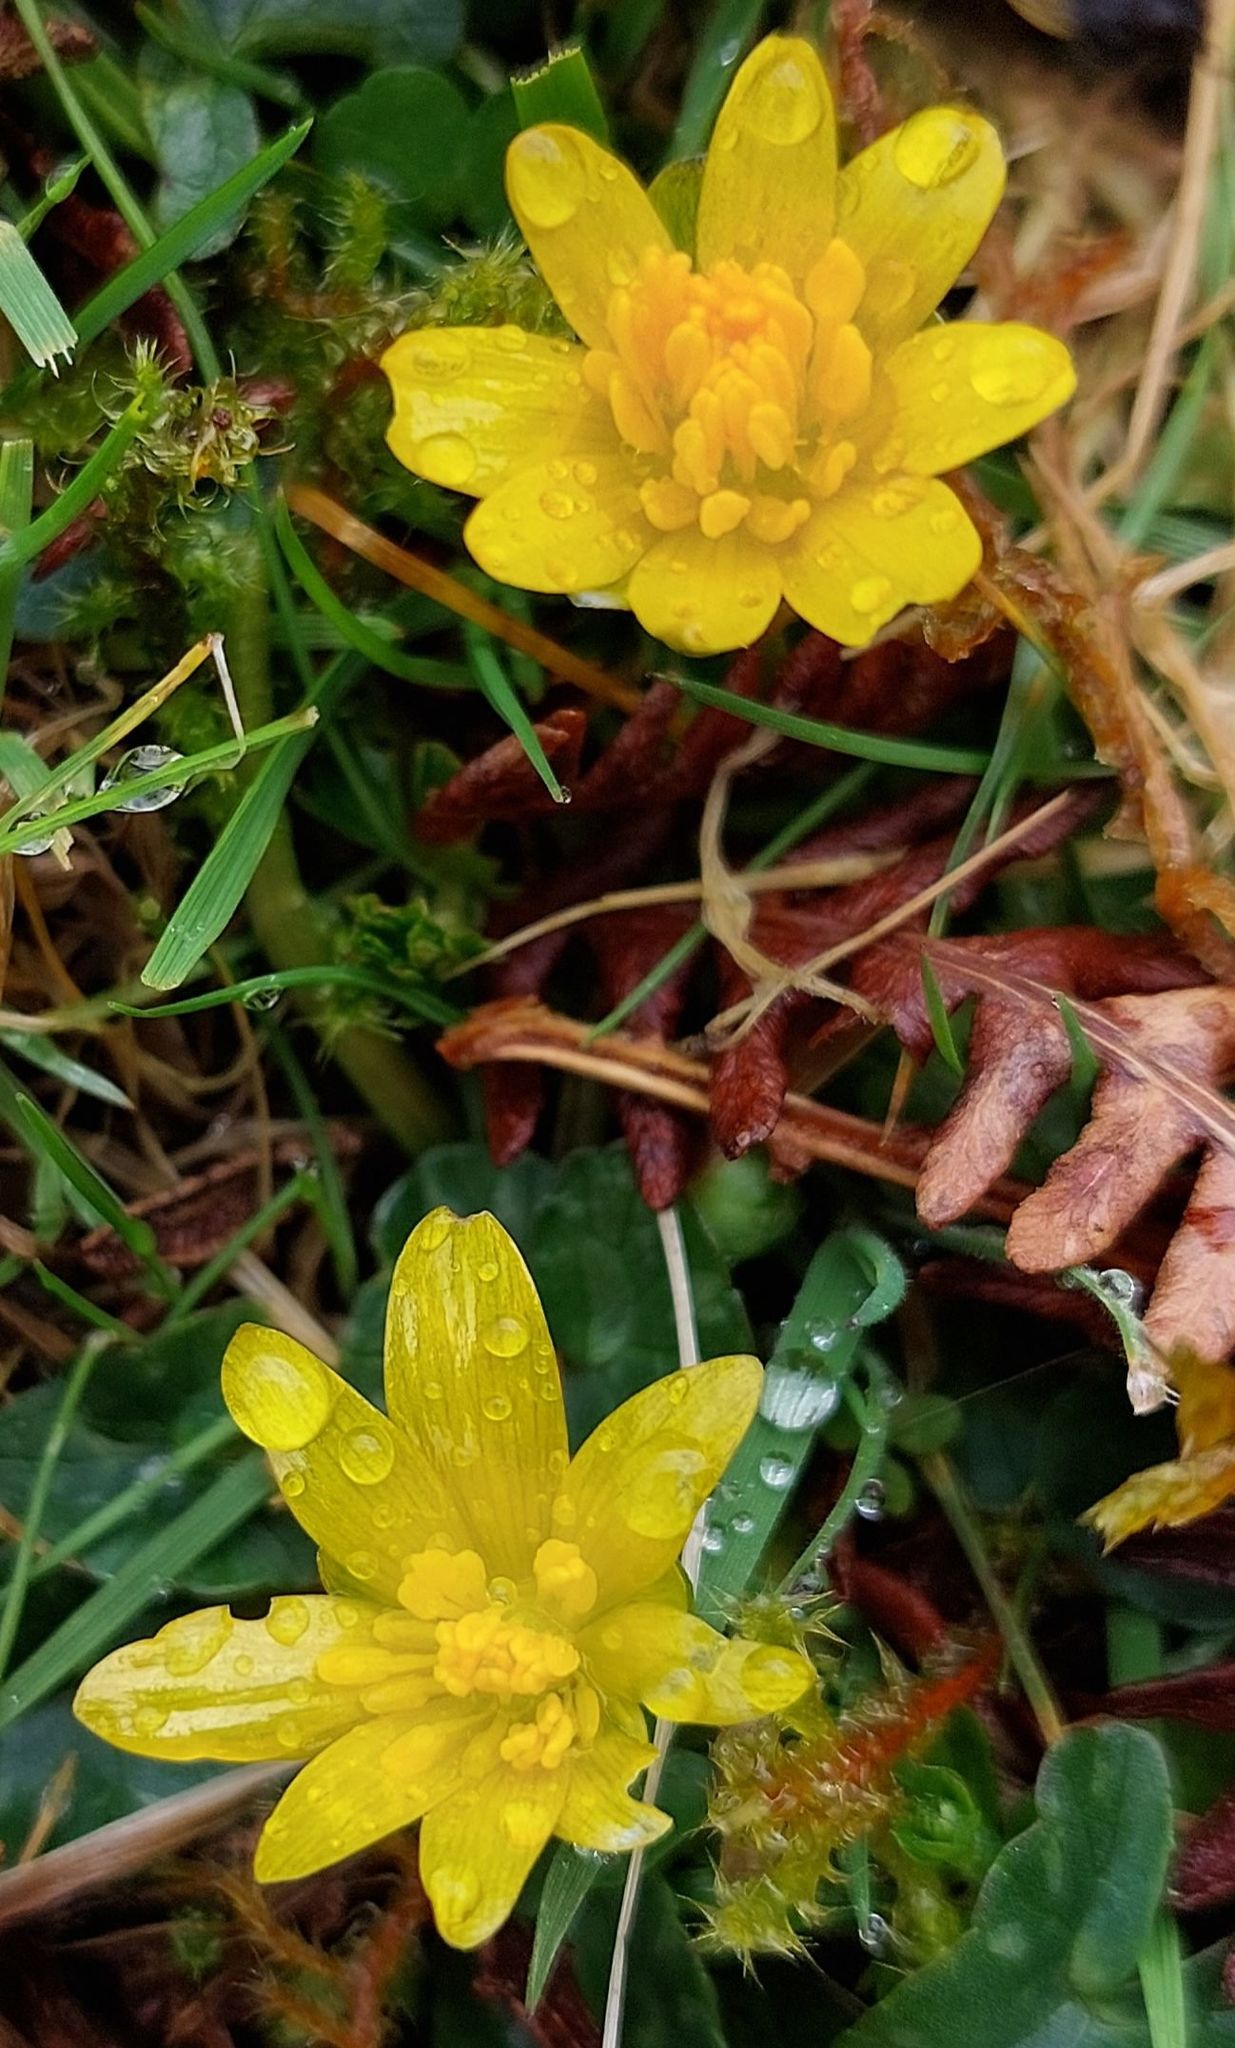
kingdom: Plantae
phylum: Tracheophyta
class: Magnoliopsida
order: Ranunculales
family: Ranunculaceae
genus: Ficaria
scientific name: Ficaria verna
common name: Lesser celandine
